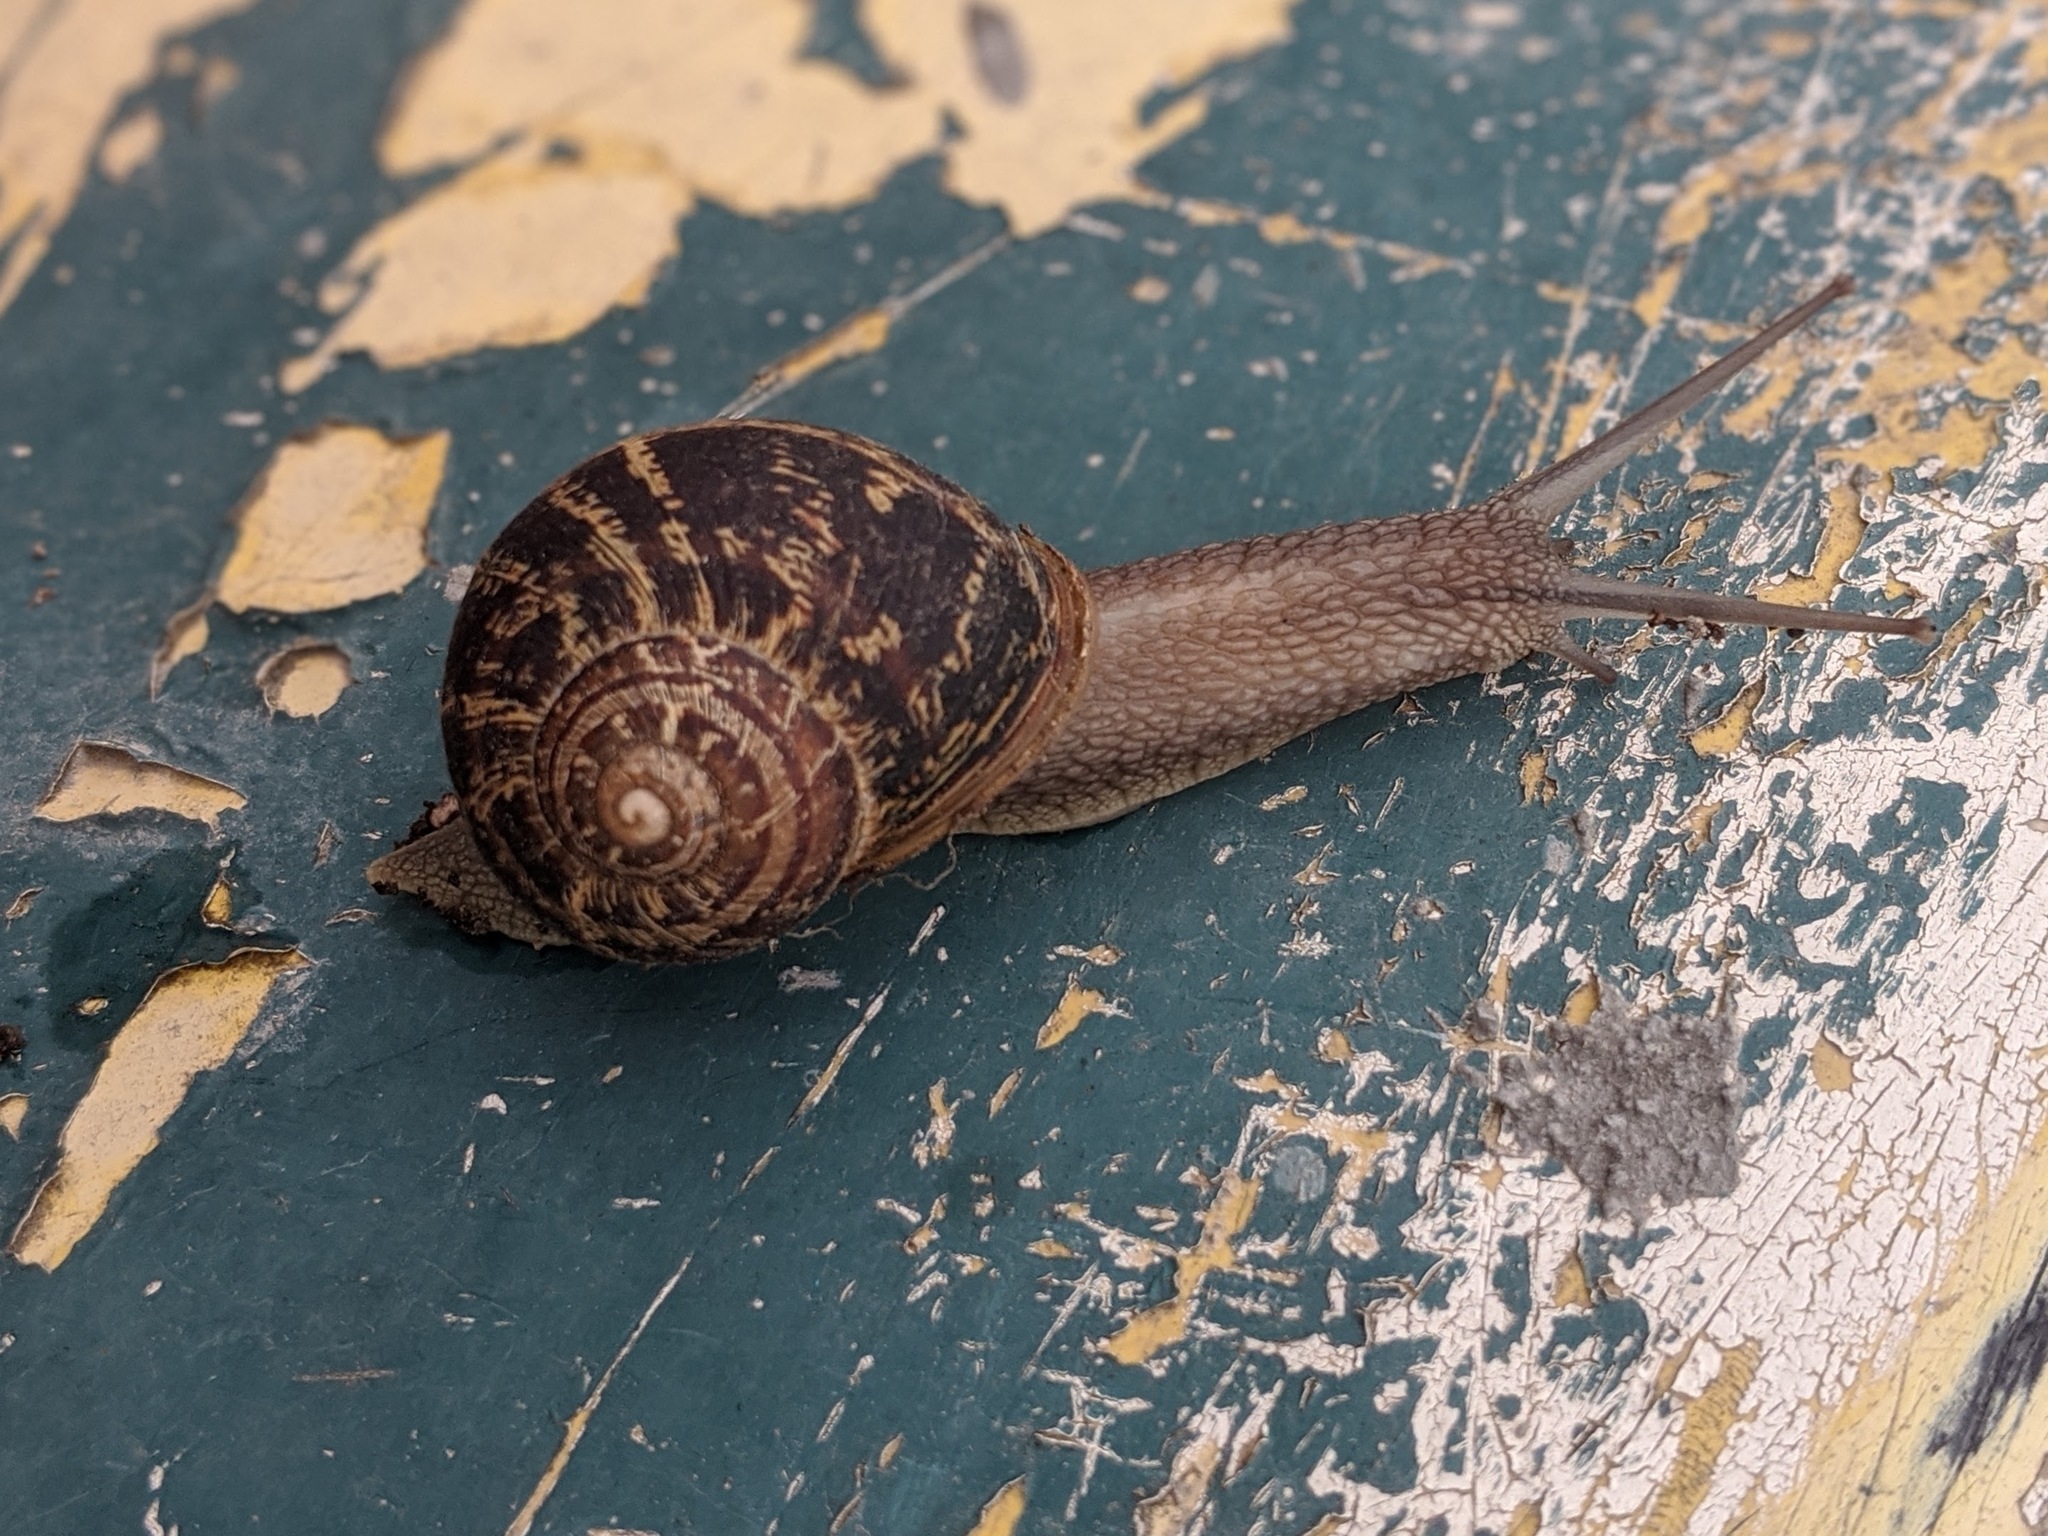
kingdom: Animalia
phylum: Mollusca
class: Gastropoda
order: Stylommatophora
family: Helicidae
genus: Cornu
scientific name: Cornu aspersum
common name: Brown garden snail
